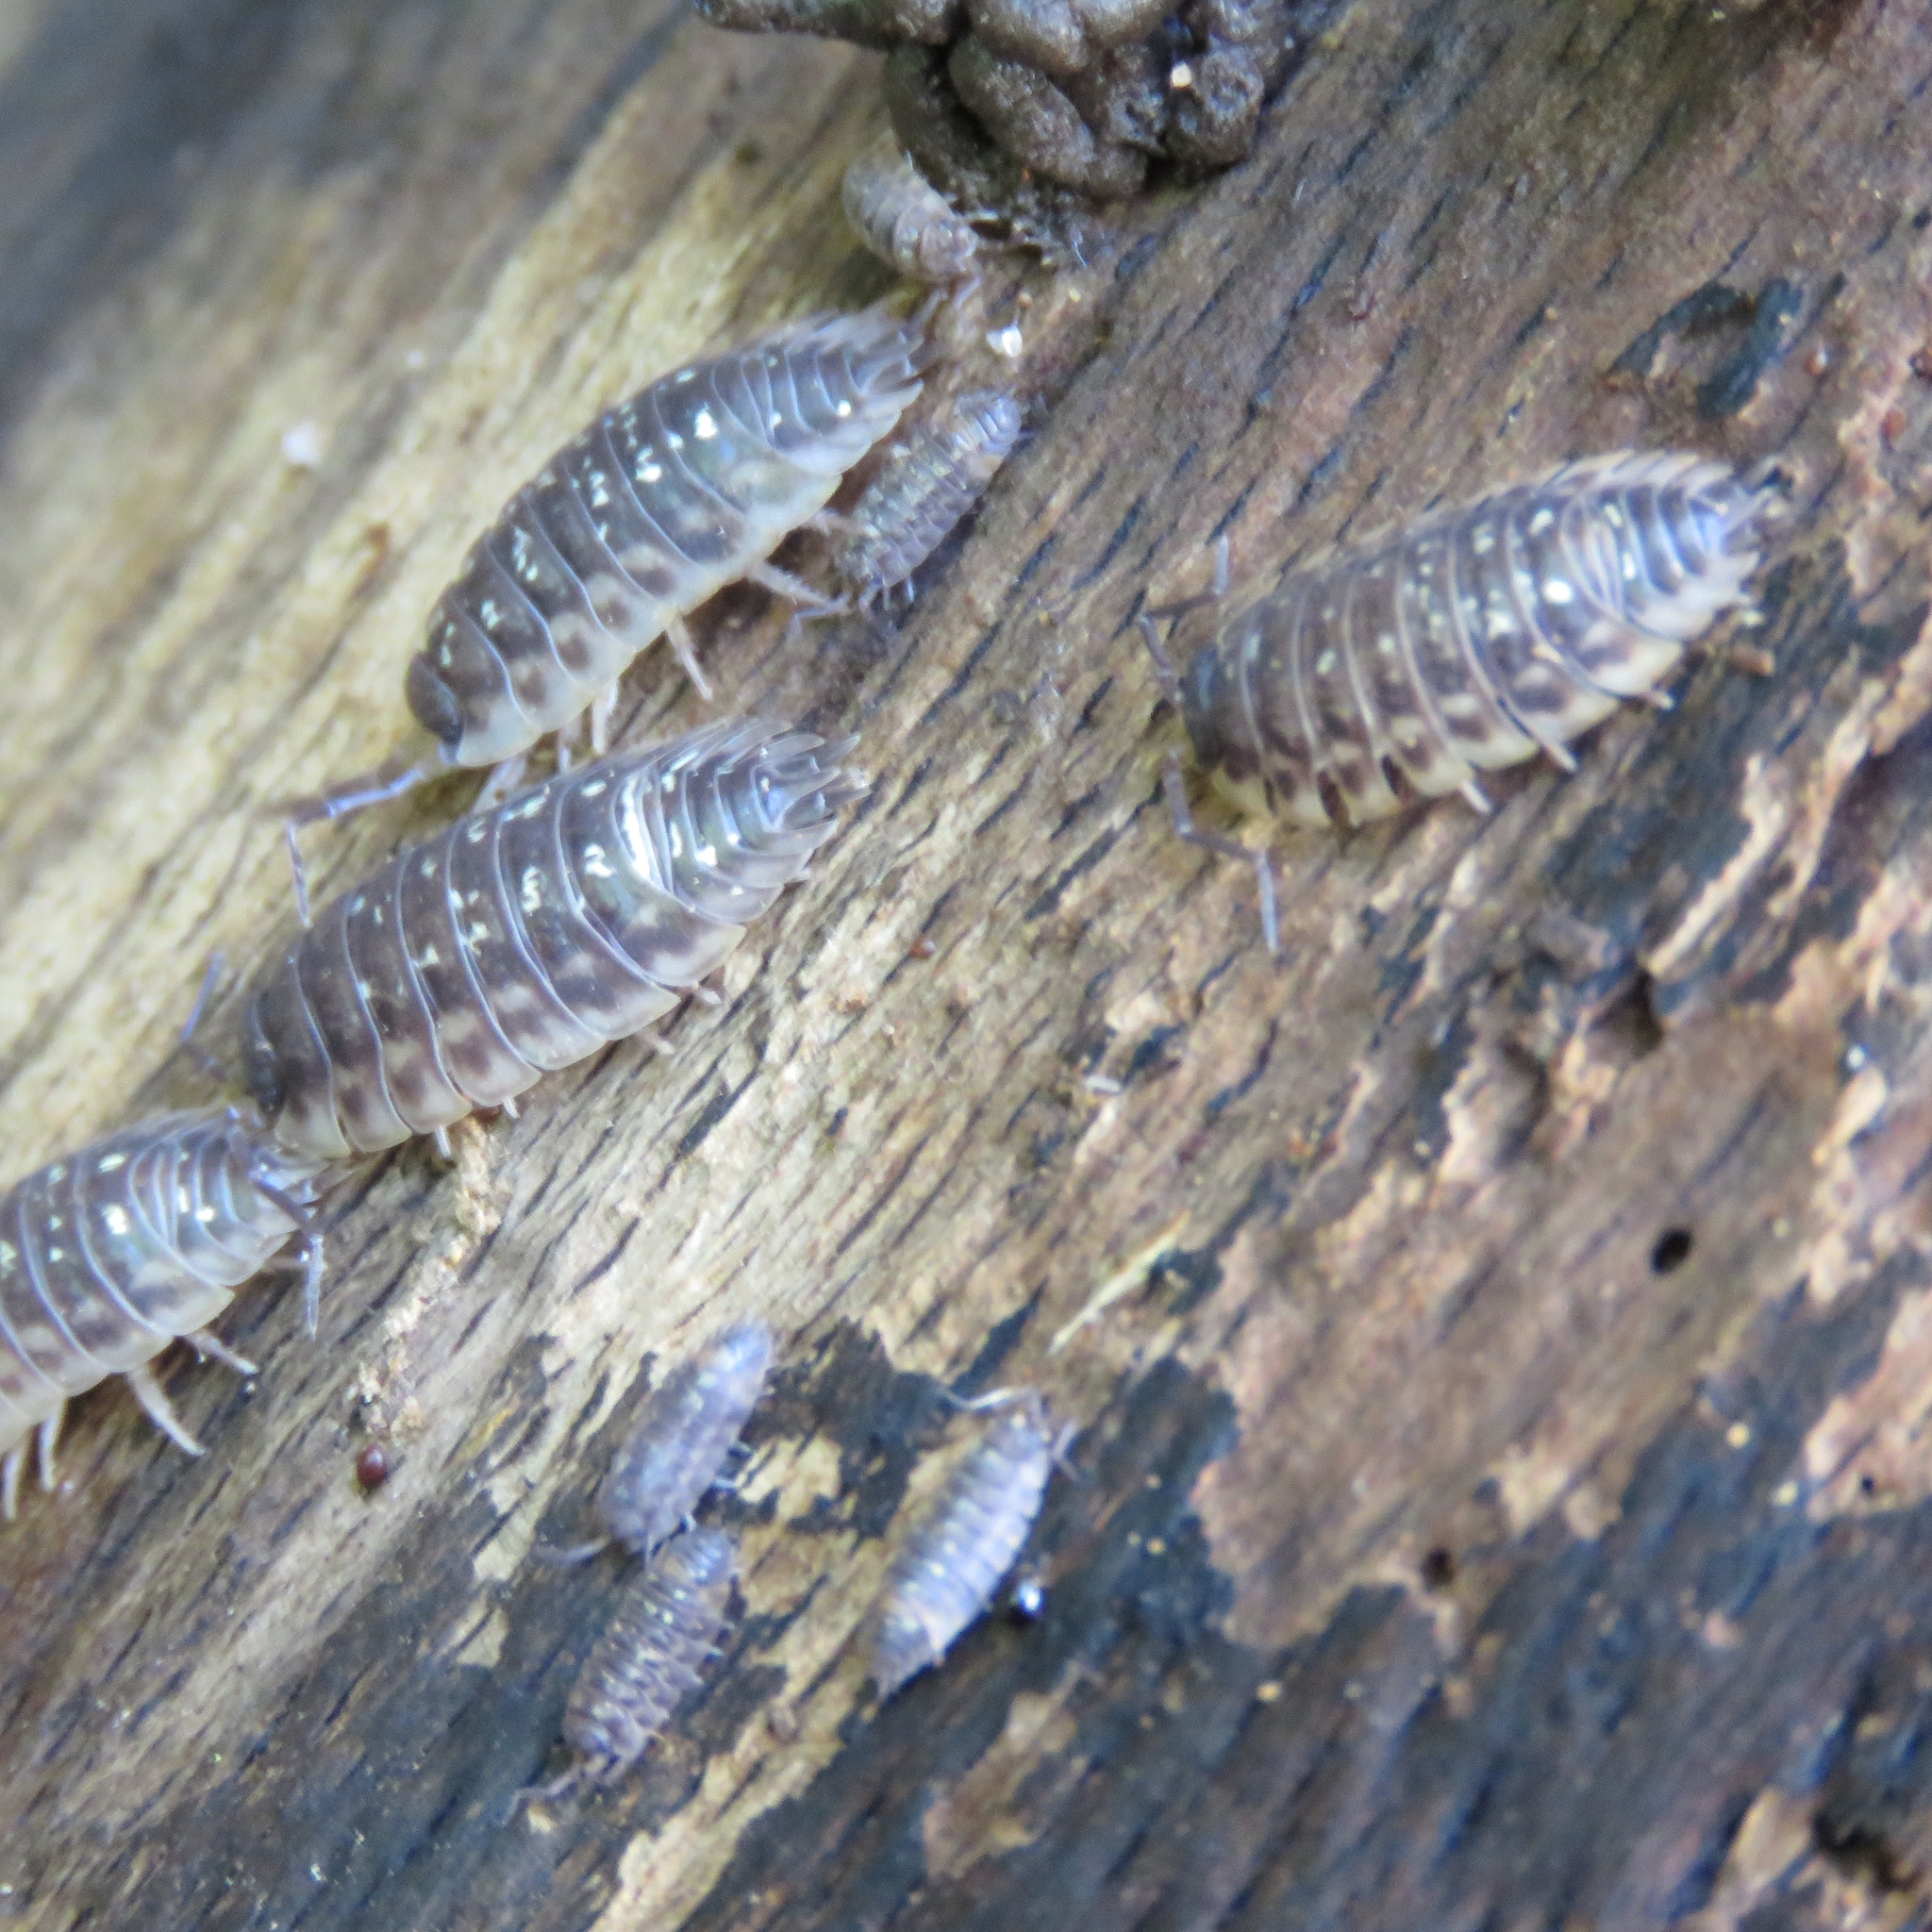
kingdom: Animalia
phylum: Arthropoda
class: Malacostraca
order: Isopoda
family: Oniscidae
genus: Oniscus
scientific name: Oniscus asellus
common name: Common shiny woodlouse
